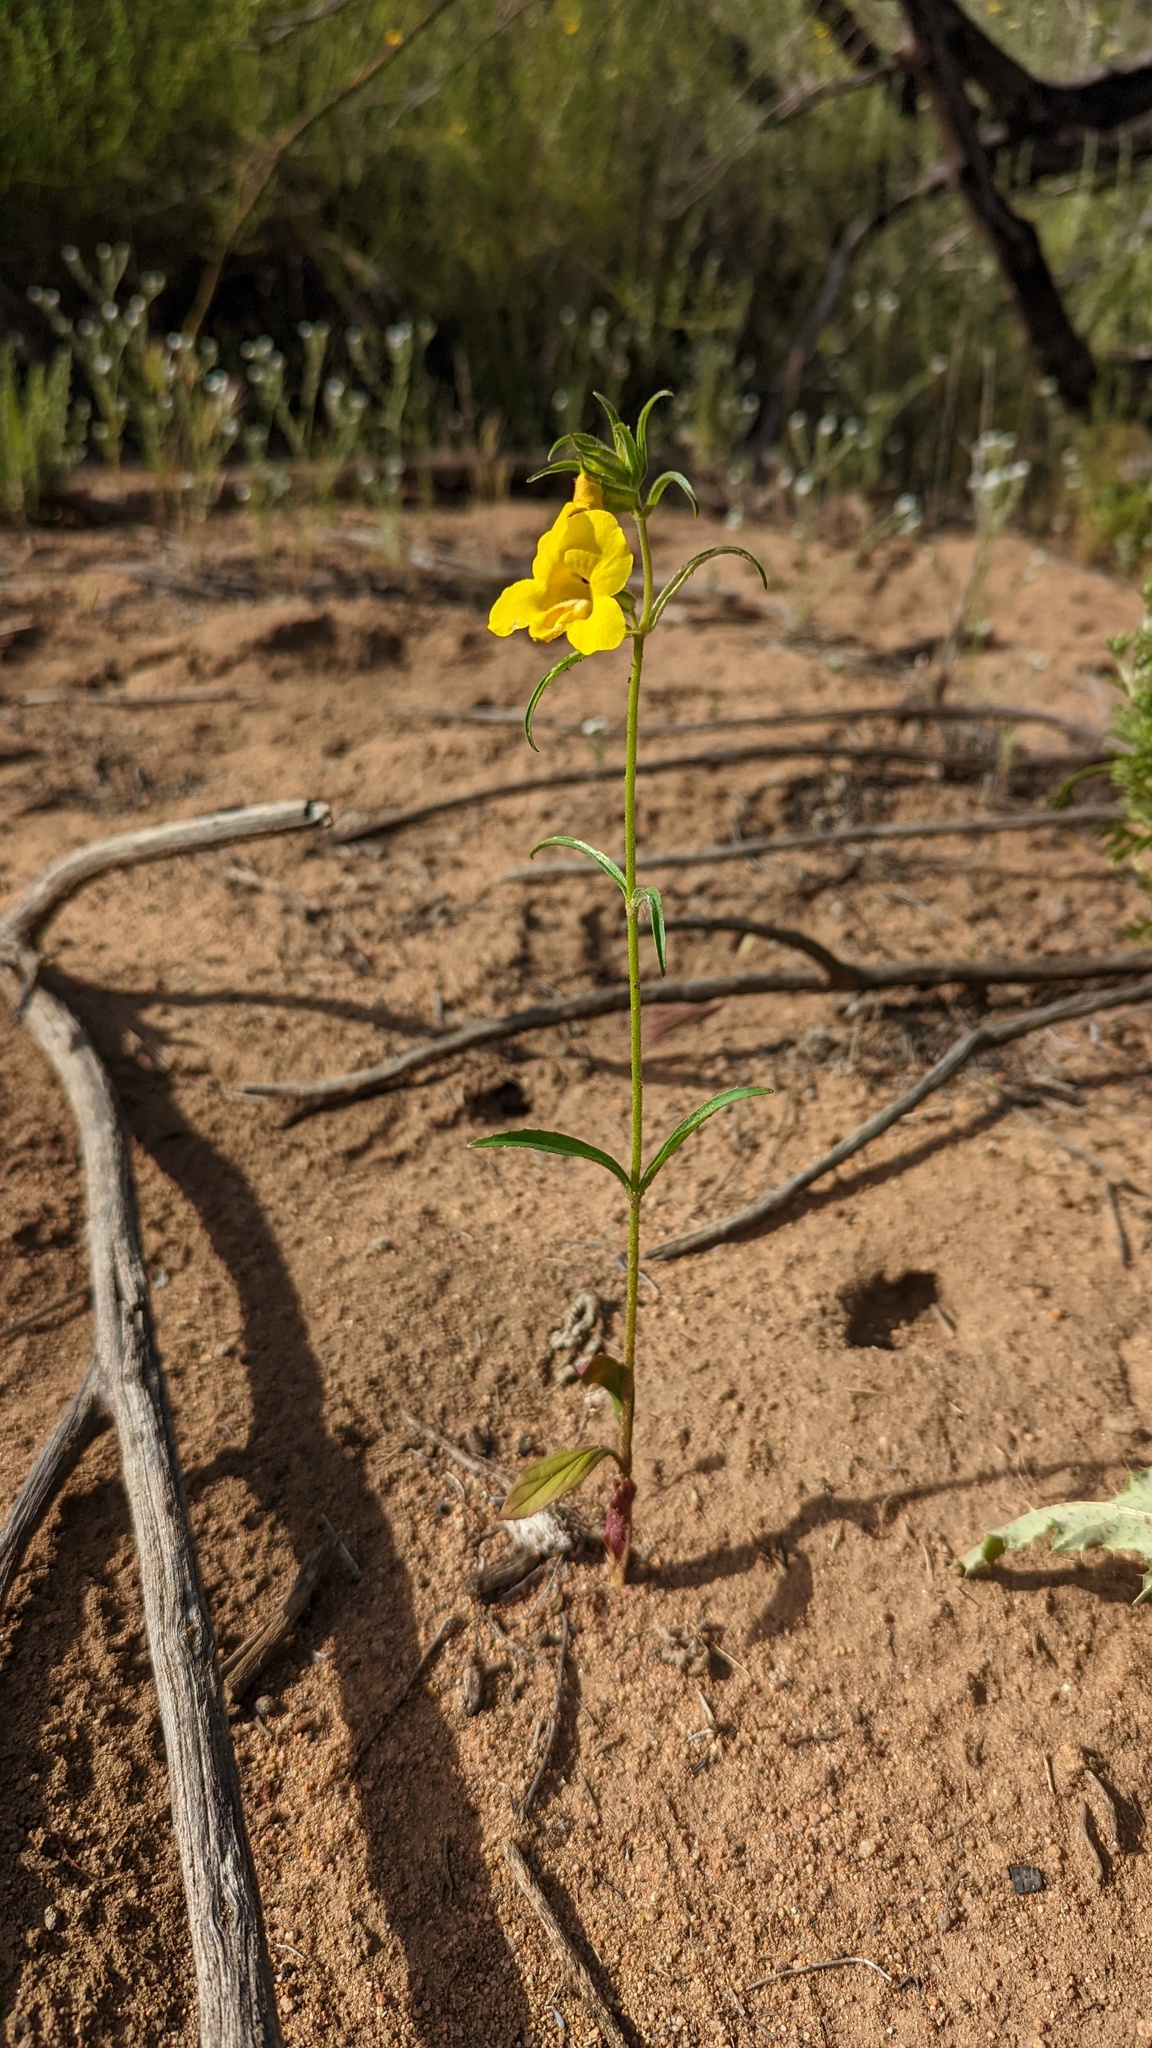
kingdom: Plantae
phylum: Tracheophyta
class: Magnoliopsida
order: Lamiales
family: Phrymaceae
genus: Diplacus
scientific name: Diplacus brevipes
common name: Wide-throat yellow monkey-flower
